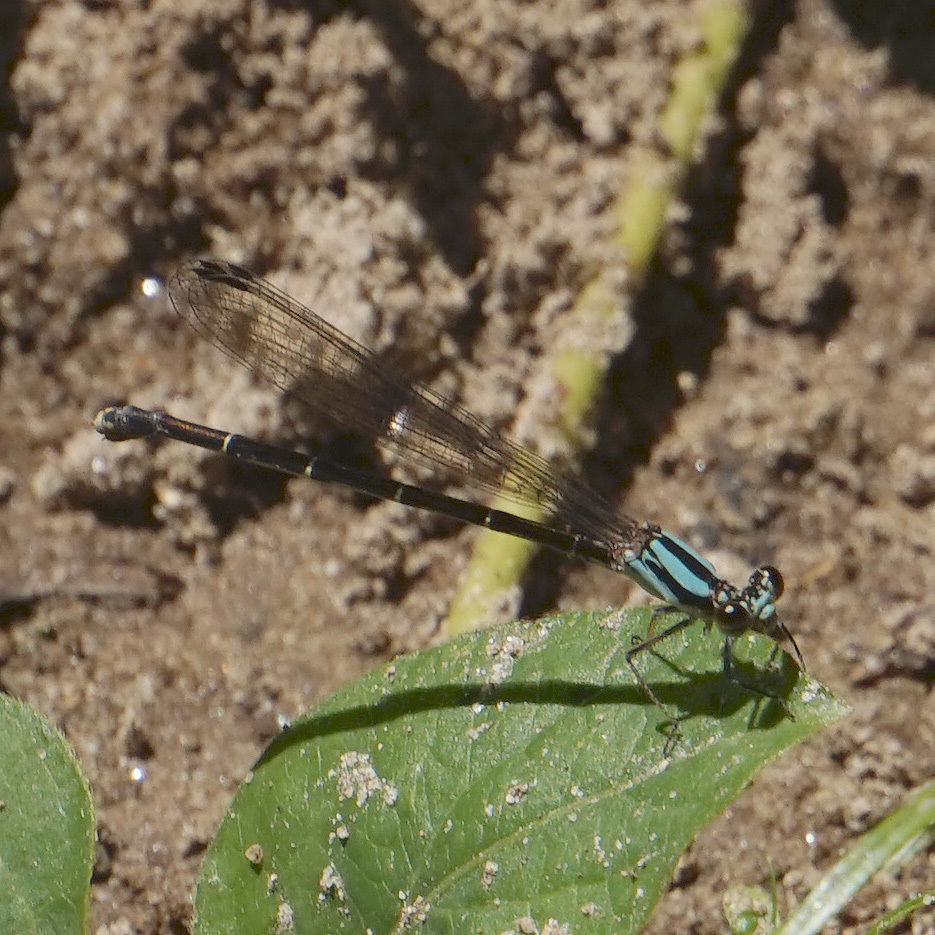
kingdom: Animalia
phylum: Arthropoda
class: Insecta
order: Odonata
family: Coenagrionidae
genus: Argia
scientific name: Argia tibialis
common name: Blue-tipped dancer
